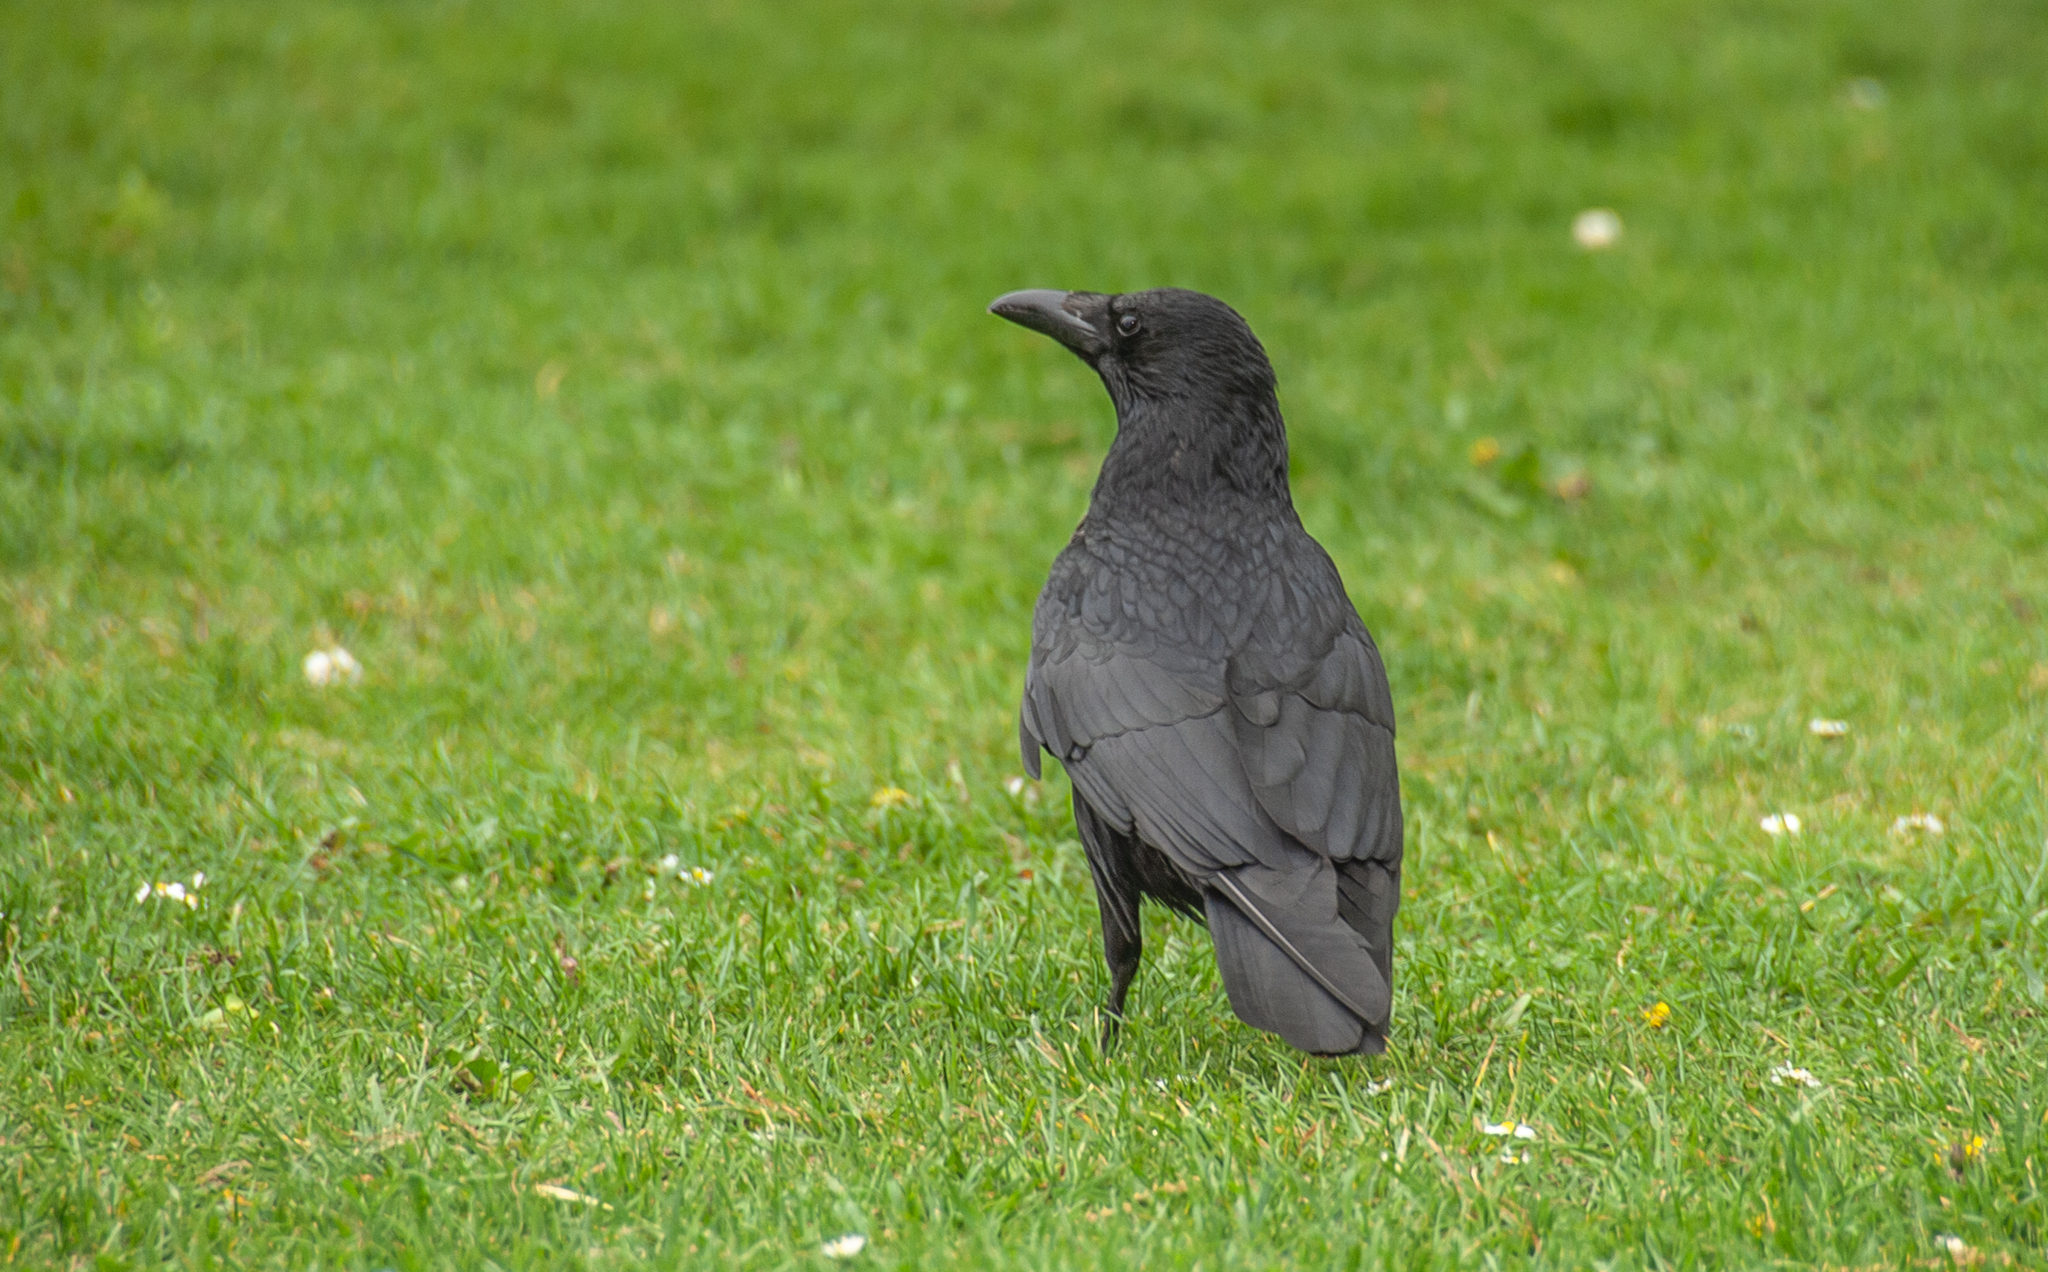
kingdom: Animalia
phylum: Chordata
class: Aves
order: Passeriformes
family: Corvidae
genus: Corvus
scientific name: Corvus corone
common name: Carrion crow
